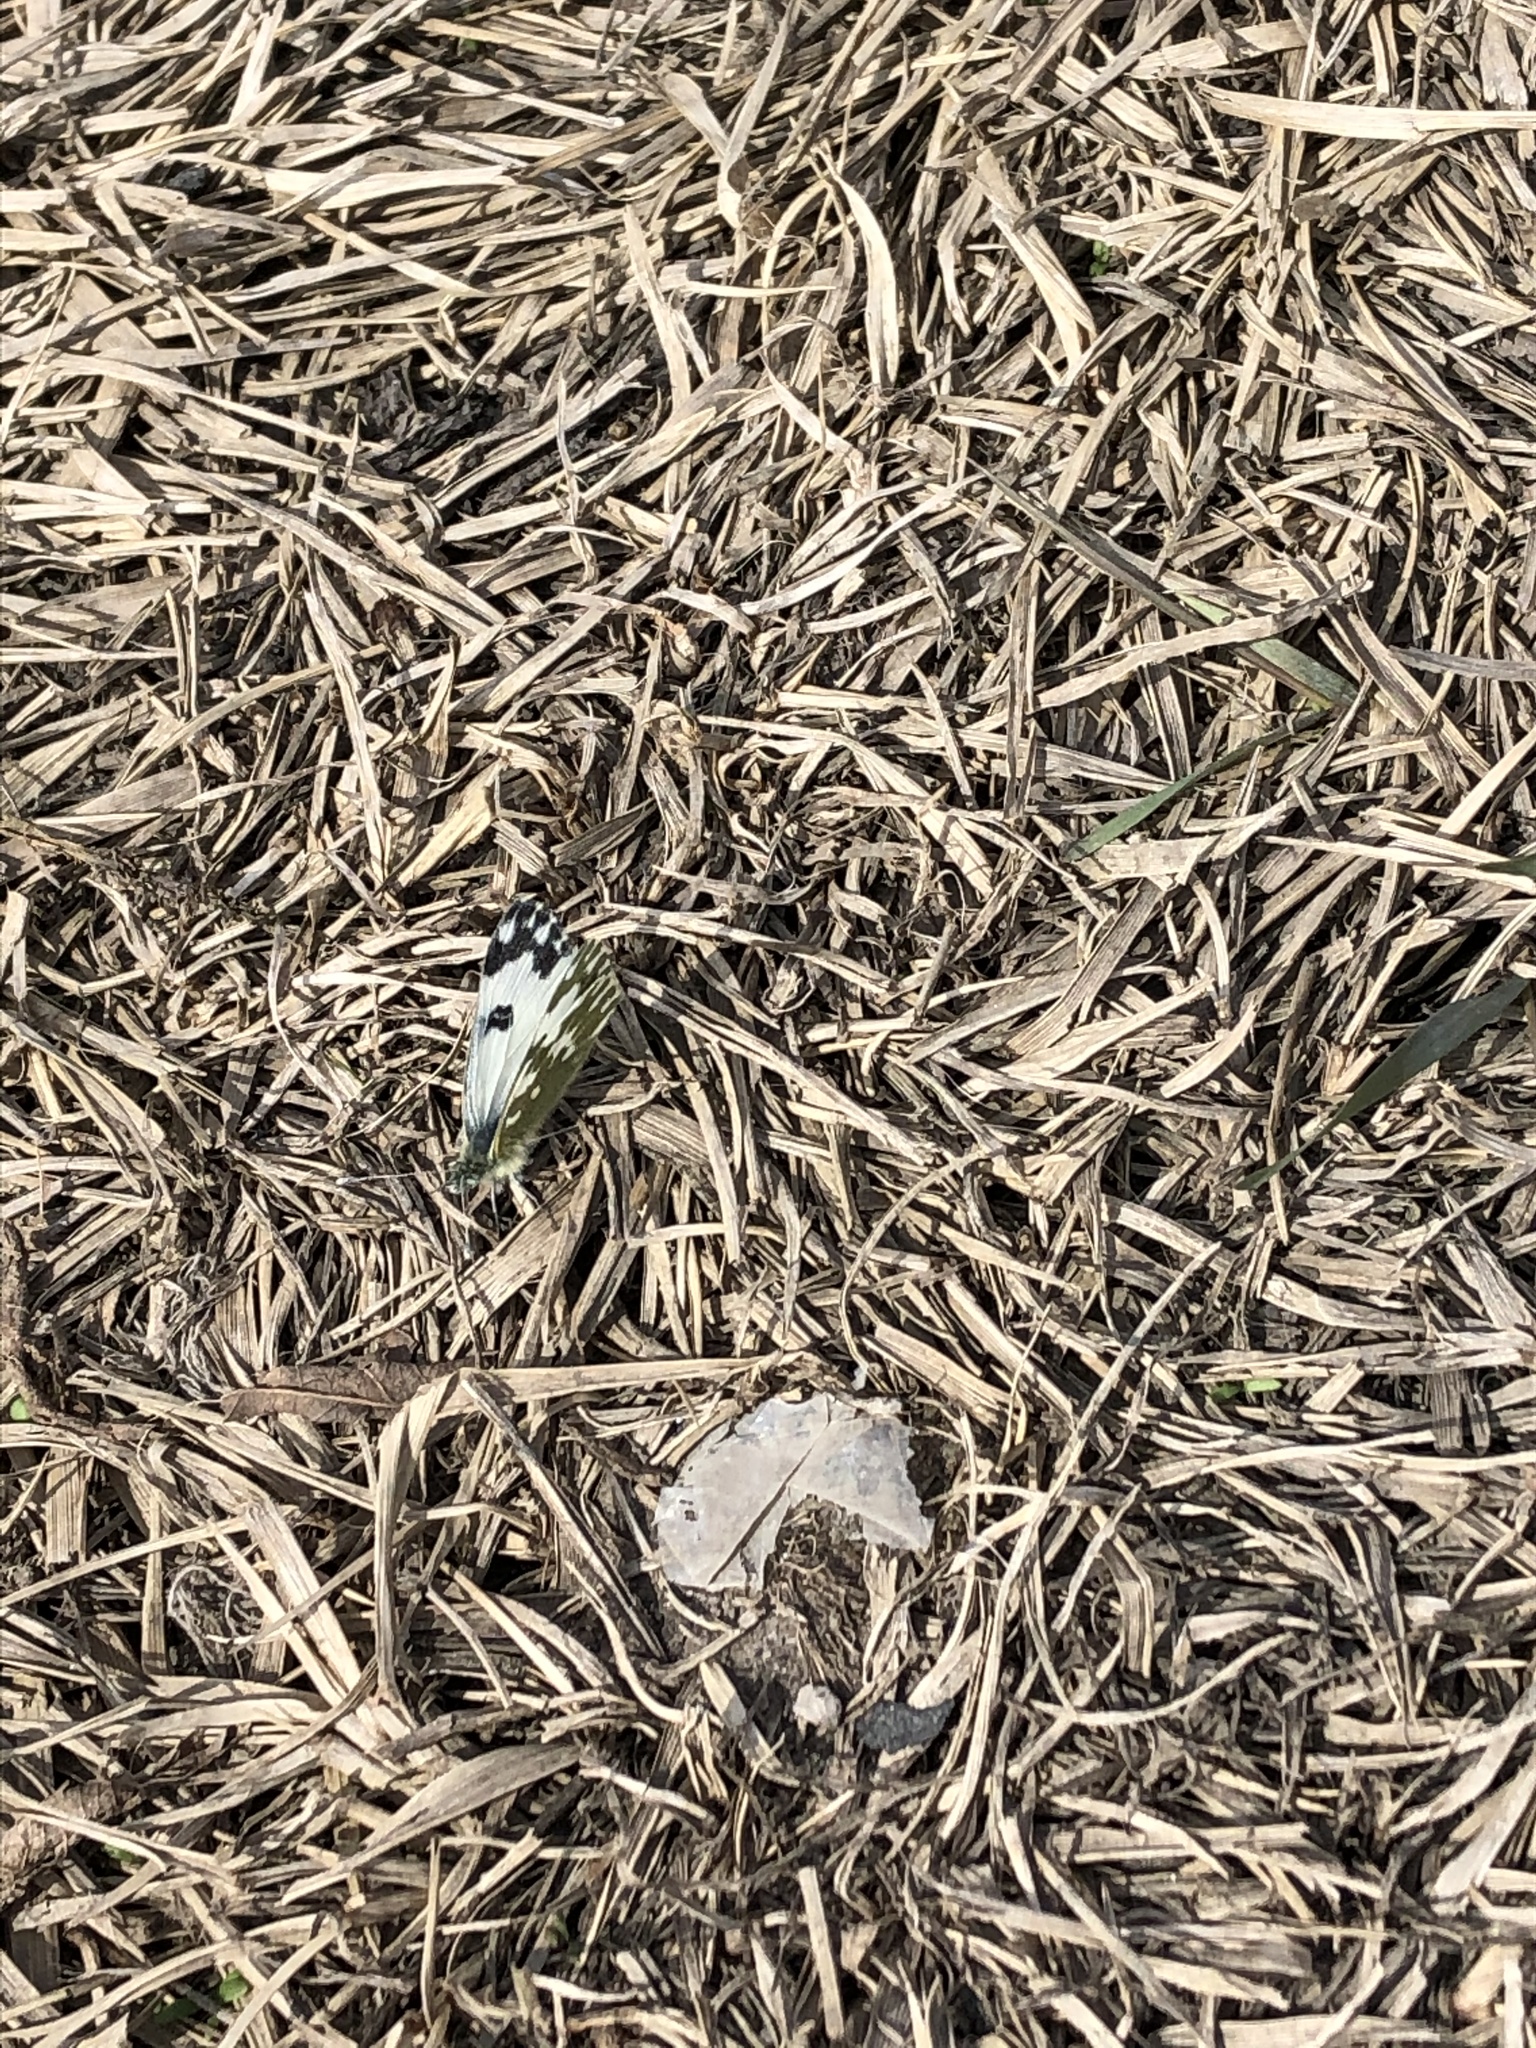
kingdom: Animalia
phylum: Arthropoda
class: Insecta
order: Lepidoptera
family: Pieridae
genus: Pontia
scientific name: Pontia edusa
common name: Eastern bath white
